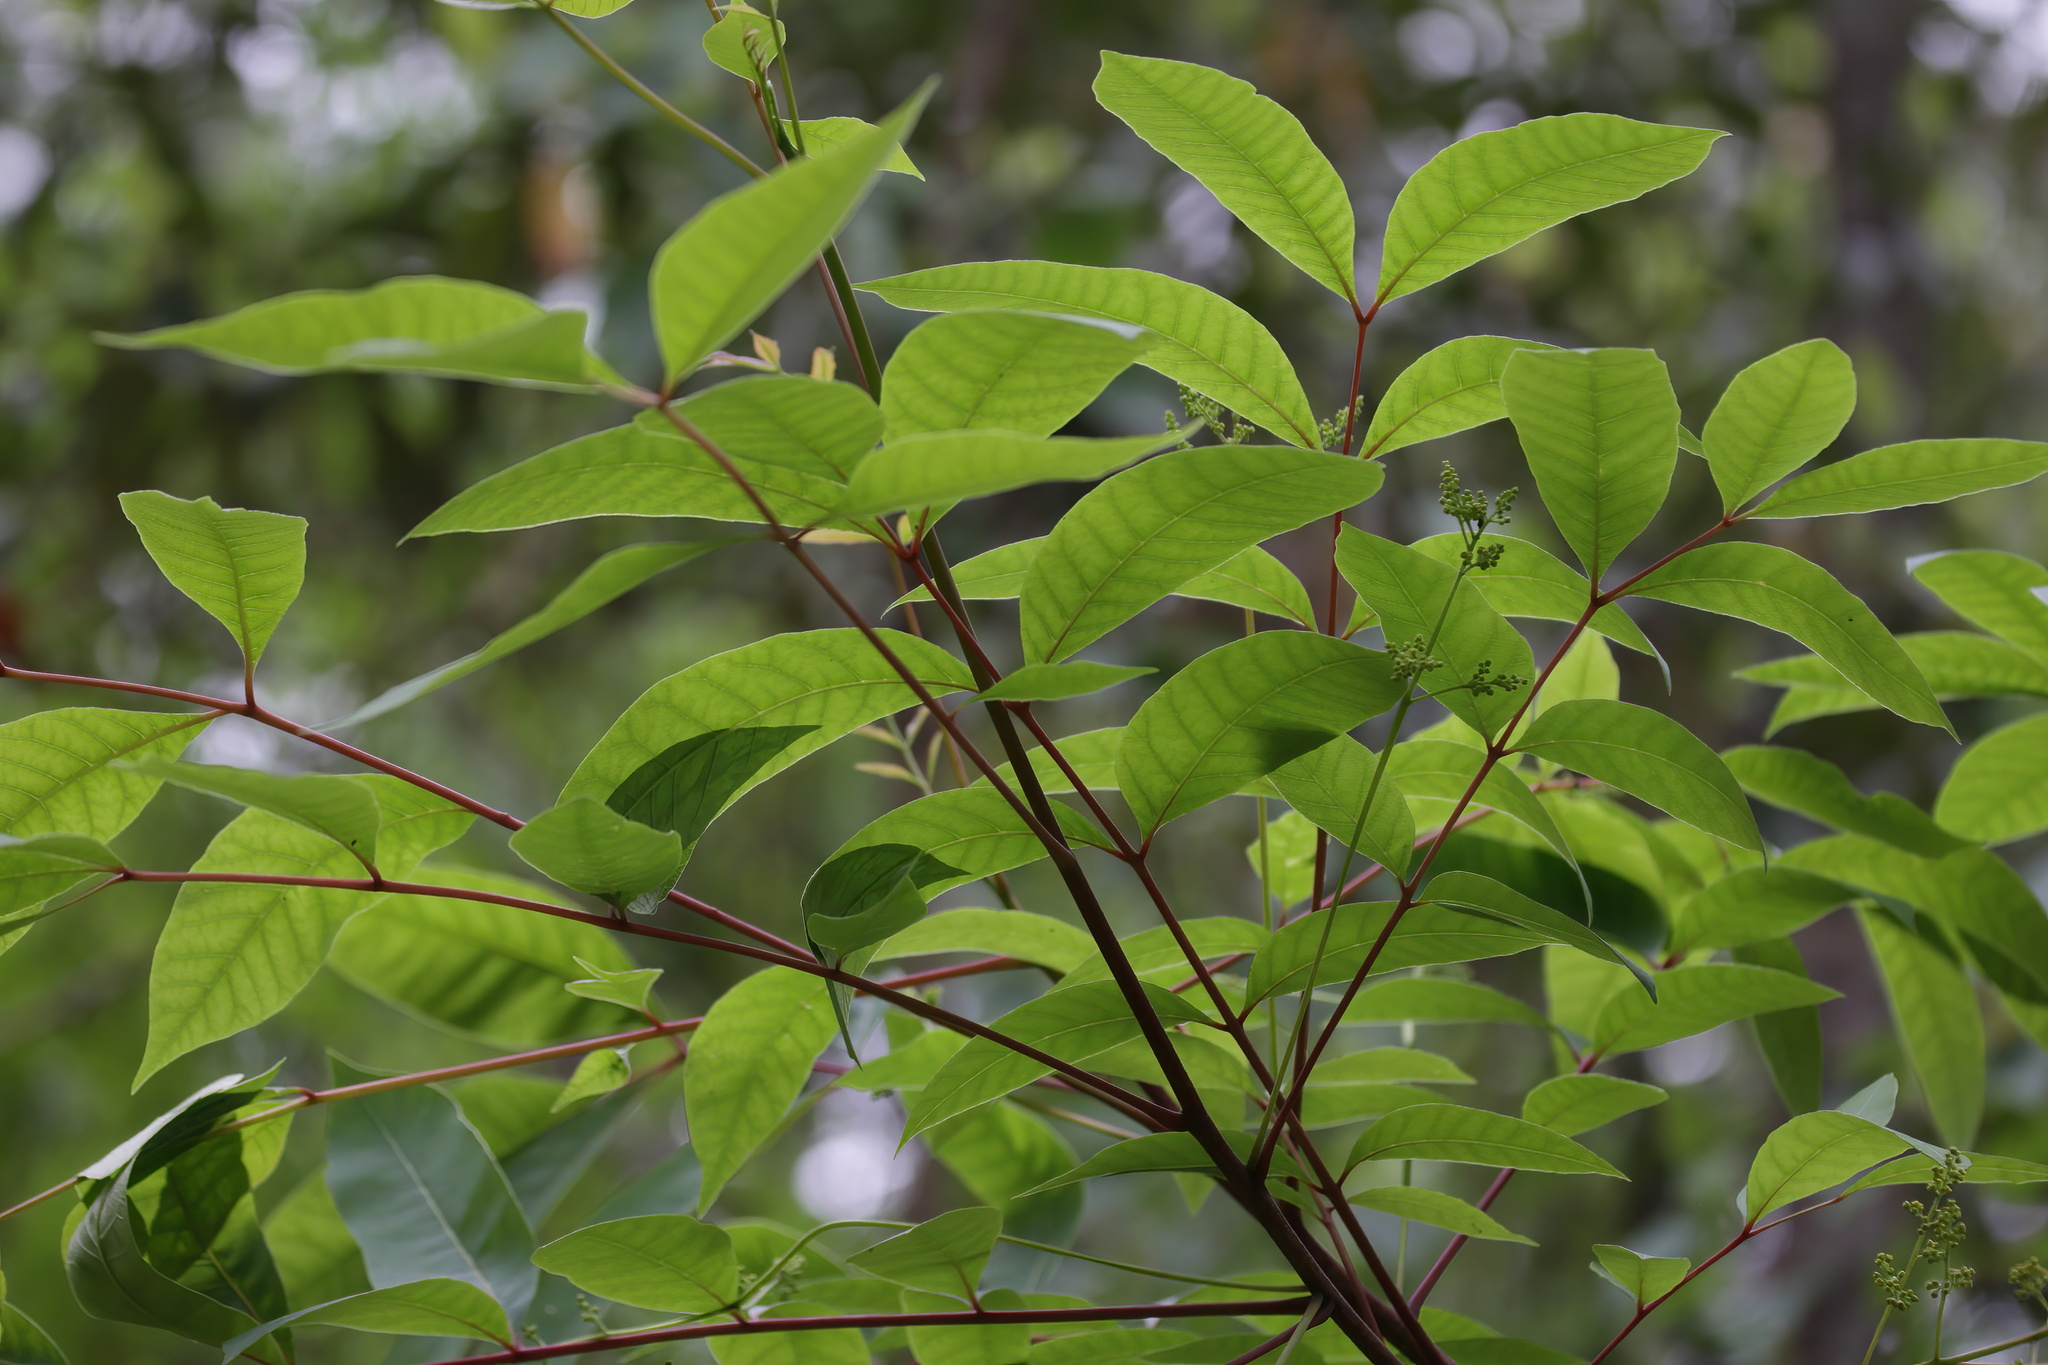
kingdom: Plantae
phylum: Tracheophyta
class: Magnoliopsida
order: Sapindales
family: Anacardiaceae
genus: Toxicodendron
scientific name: Toxicodendron vernix
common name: Poison sumac
